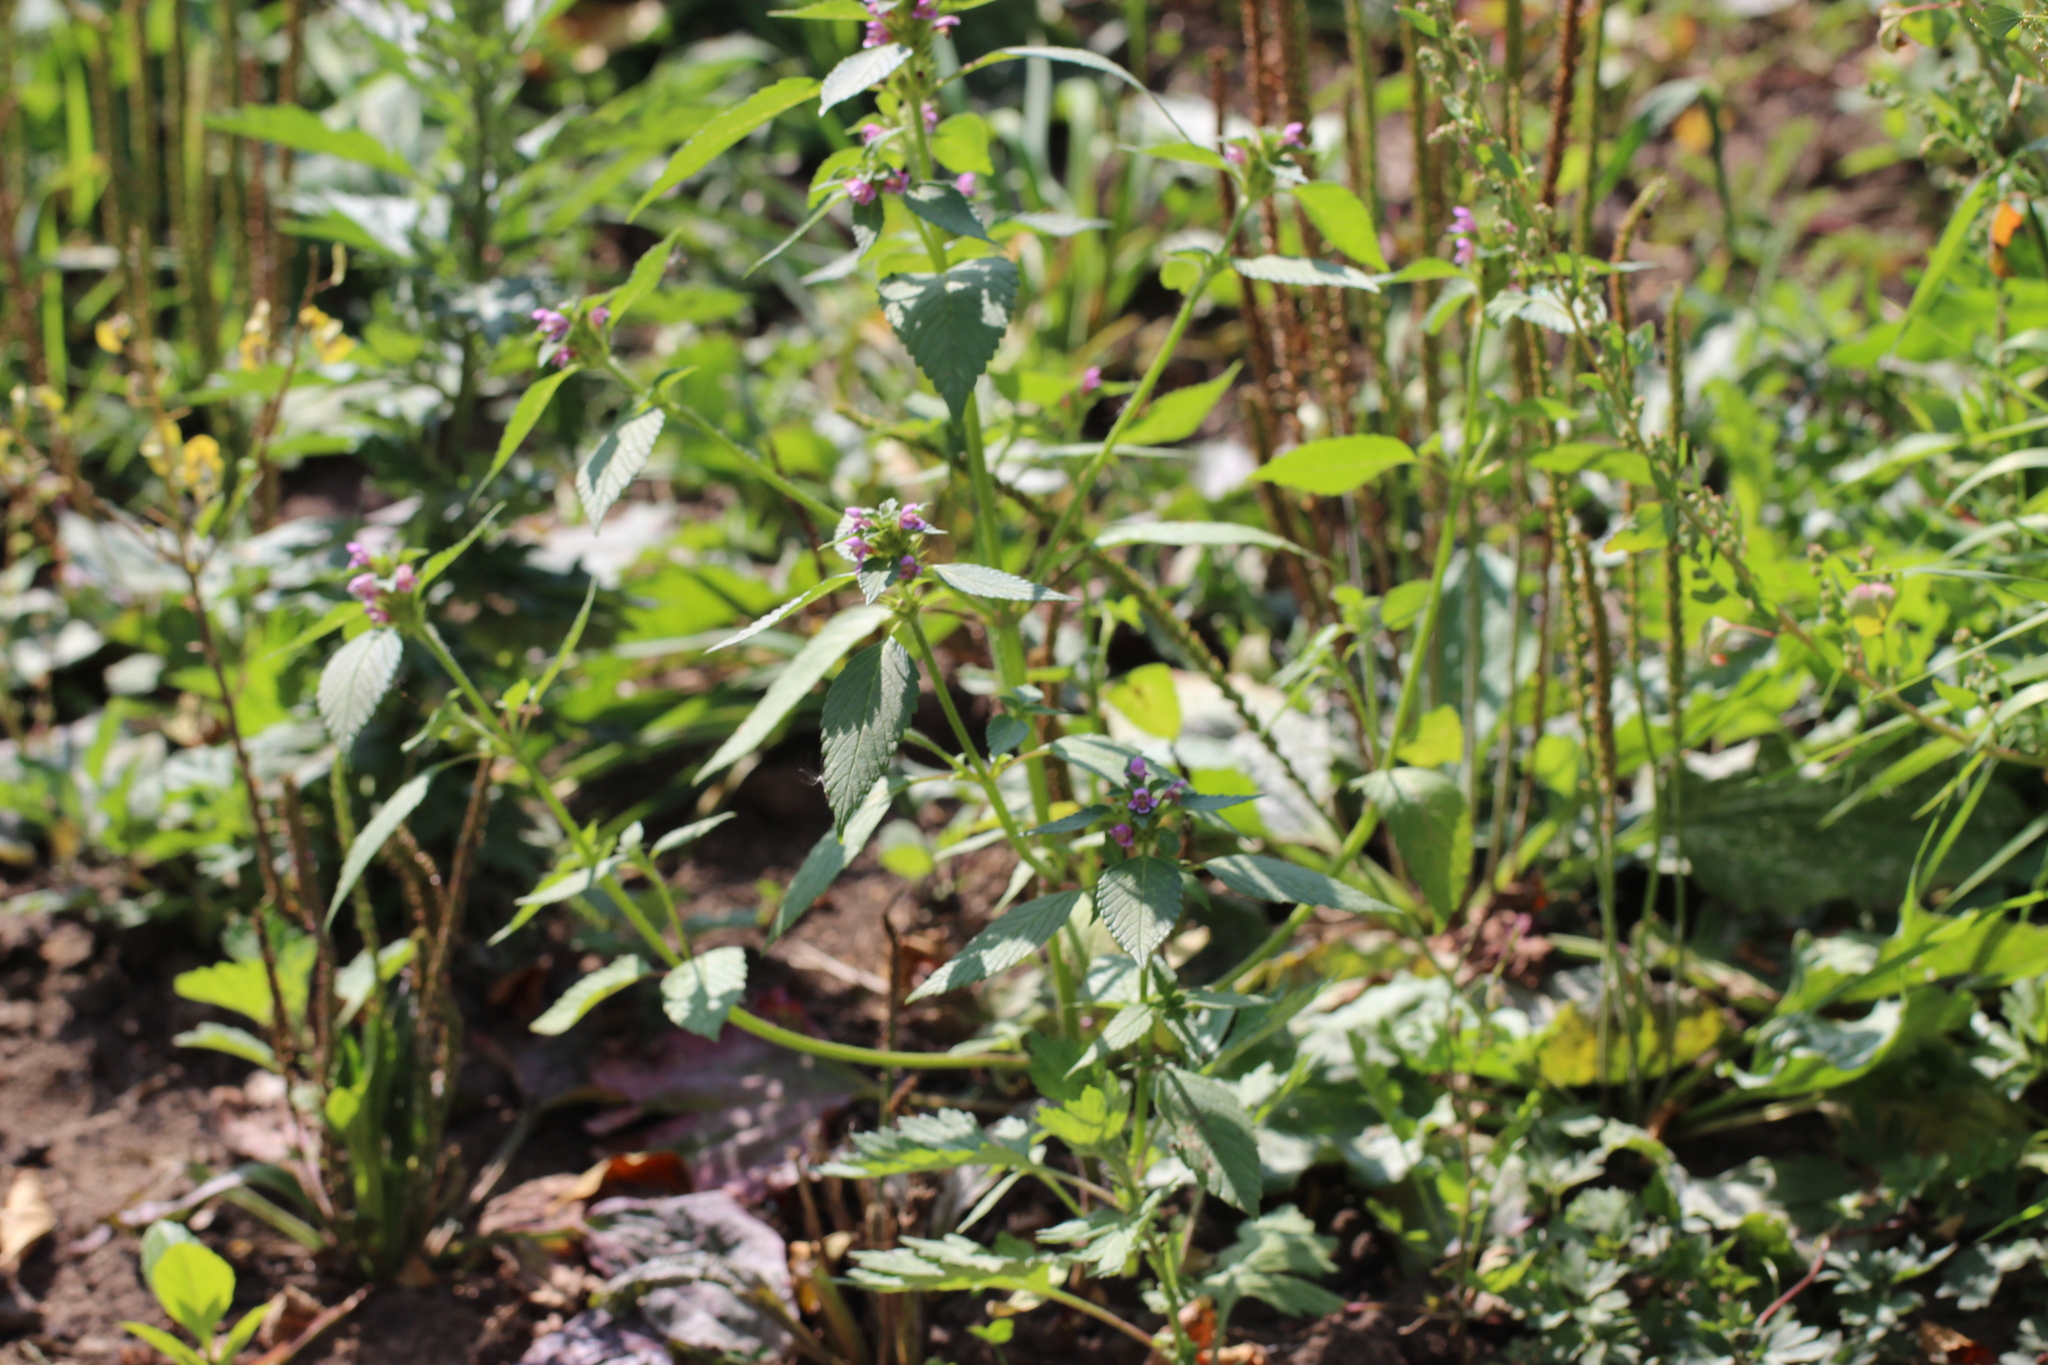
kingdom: Plantae
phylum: Tracheophyta
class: Magnoliopsida
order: Lamiales
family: Lamiaceae
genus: Galeopsis
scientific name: Galeopsis tetrahit
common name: Common hemp-nettle
